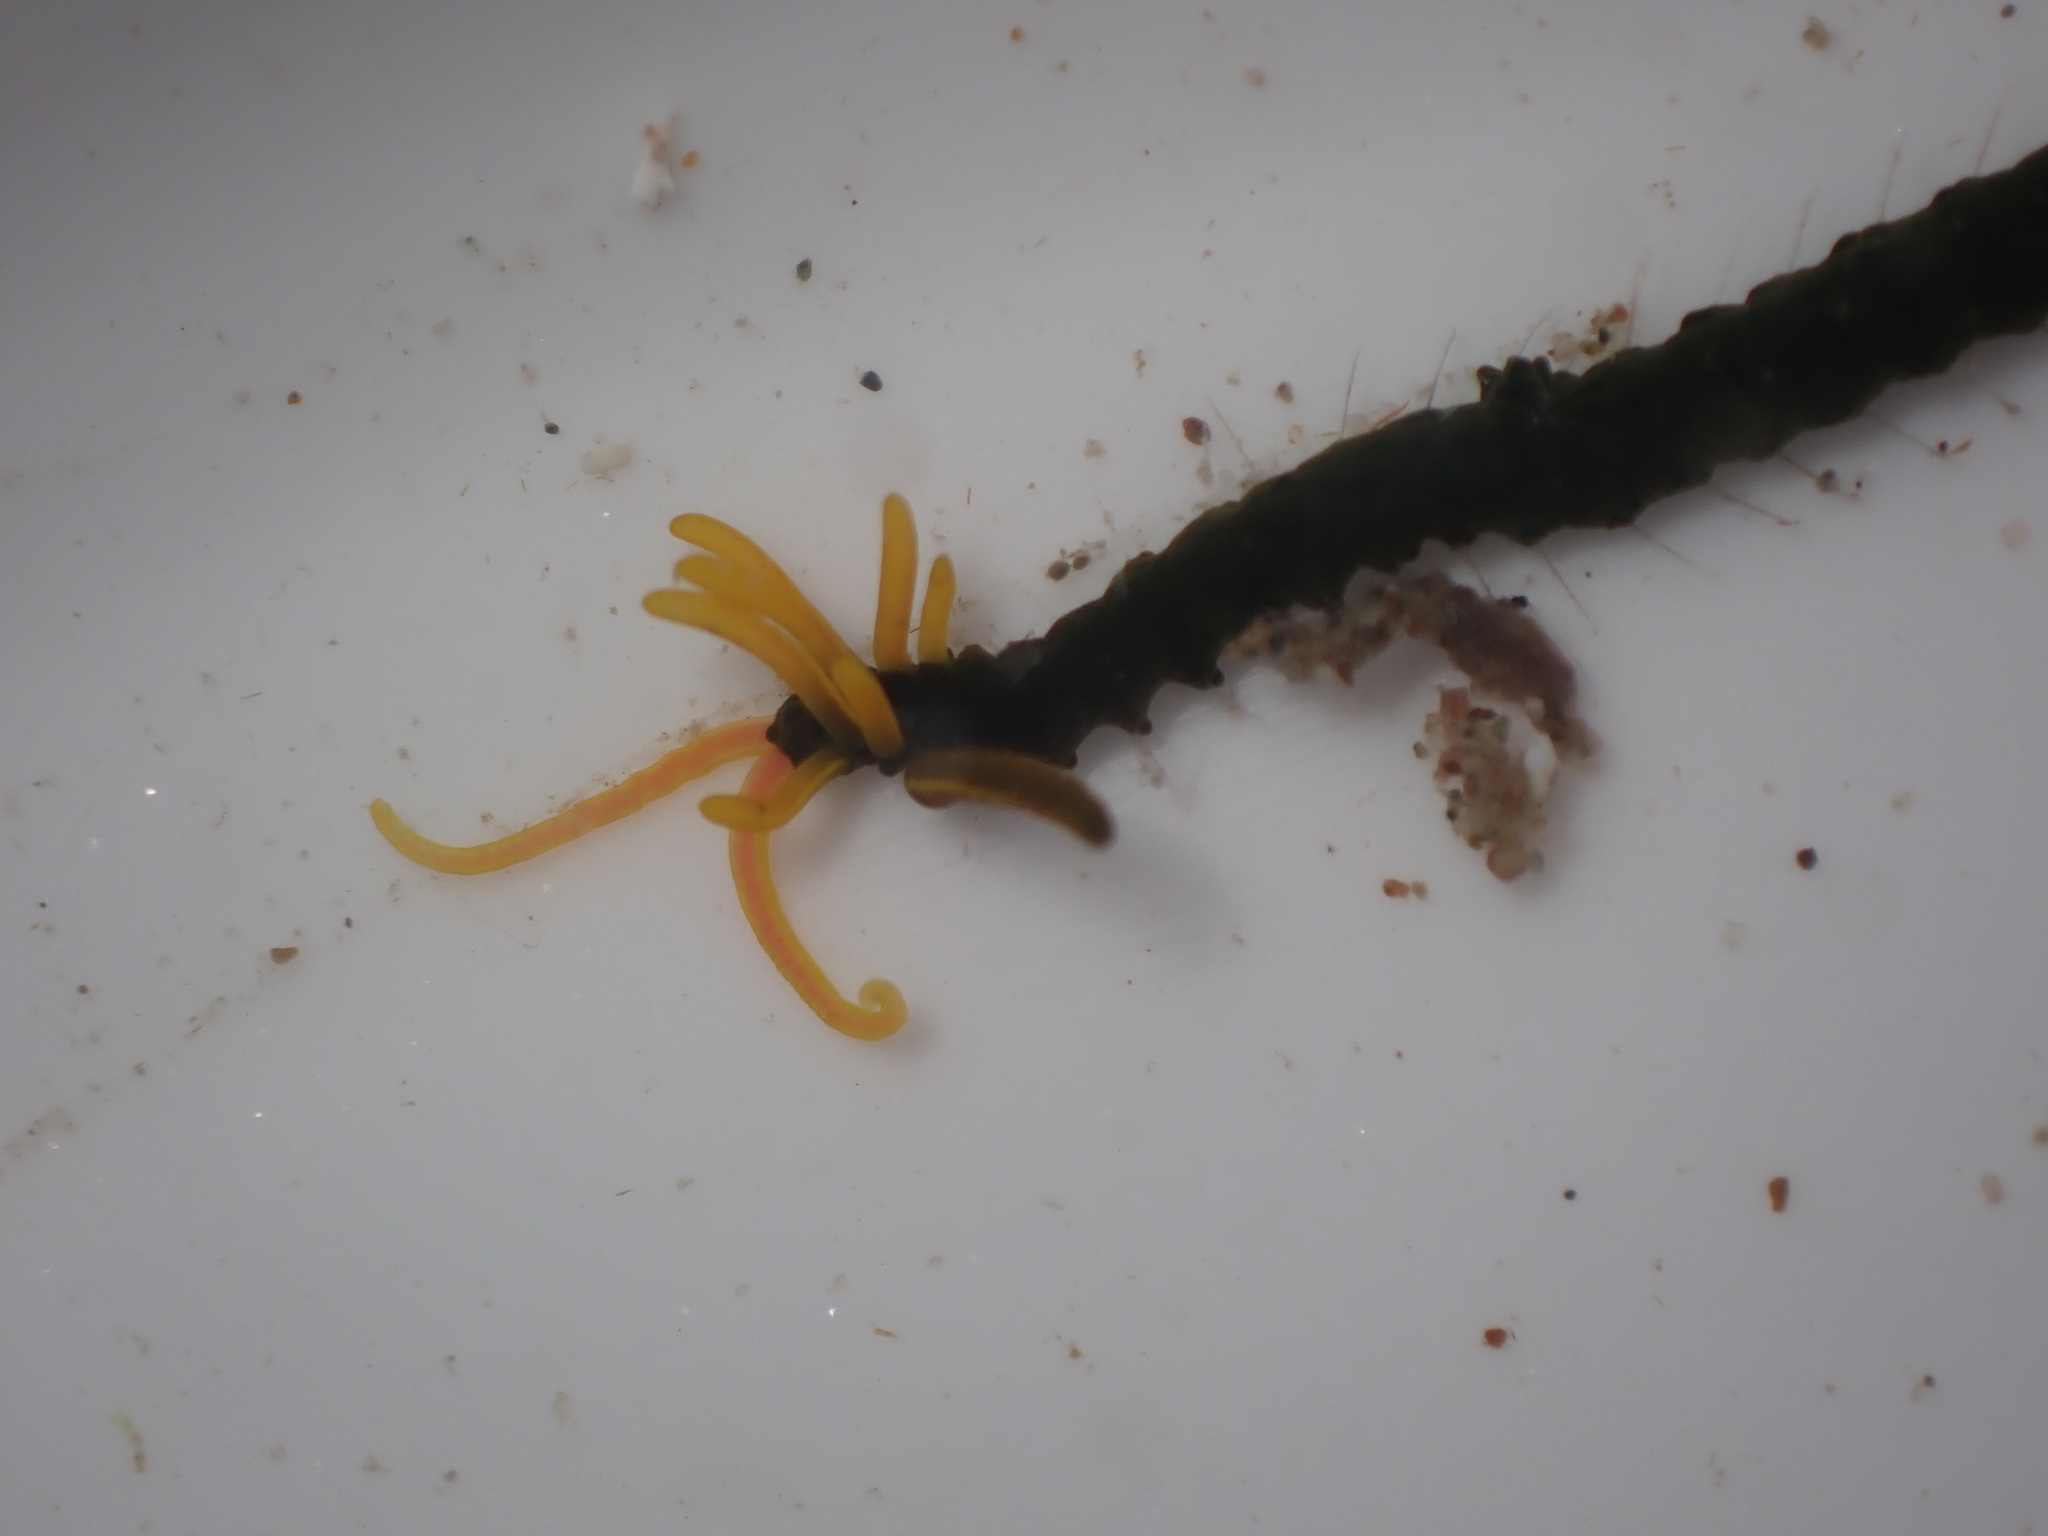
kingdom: Animalia
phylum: Annelida
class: Polychaeta
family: Acrocirridae
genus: Acrocirrus
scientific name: Acrocirrus
